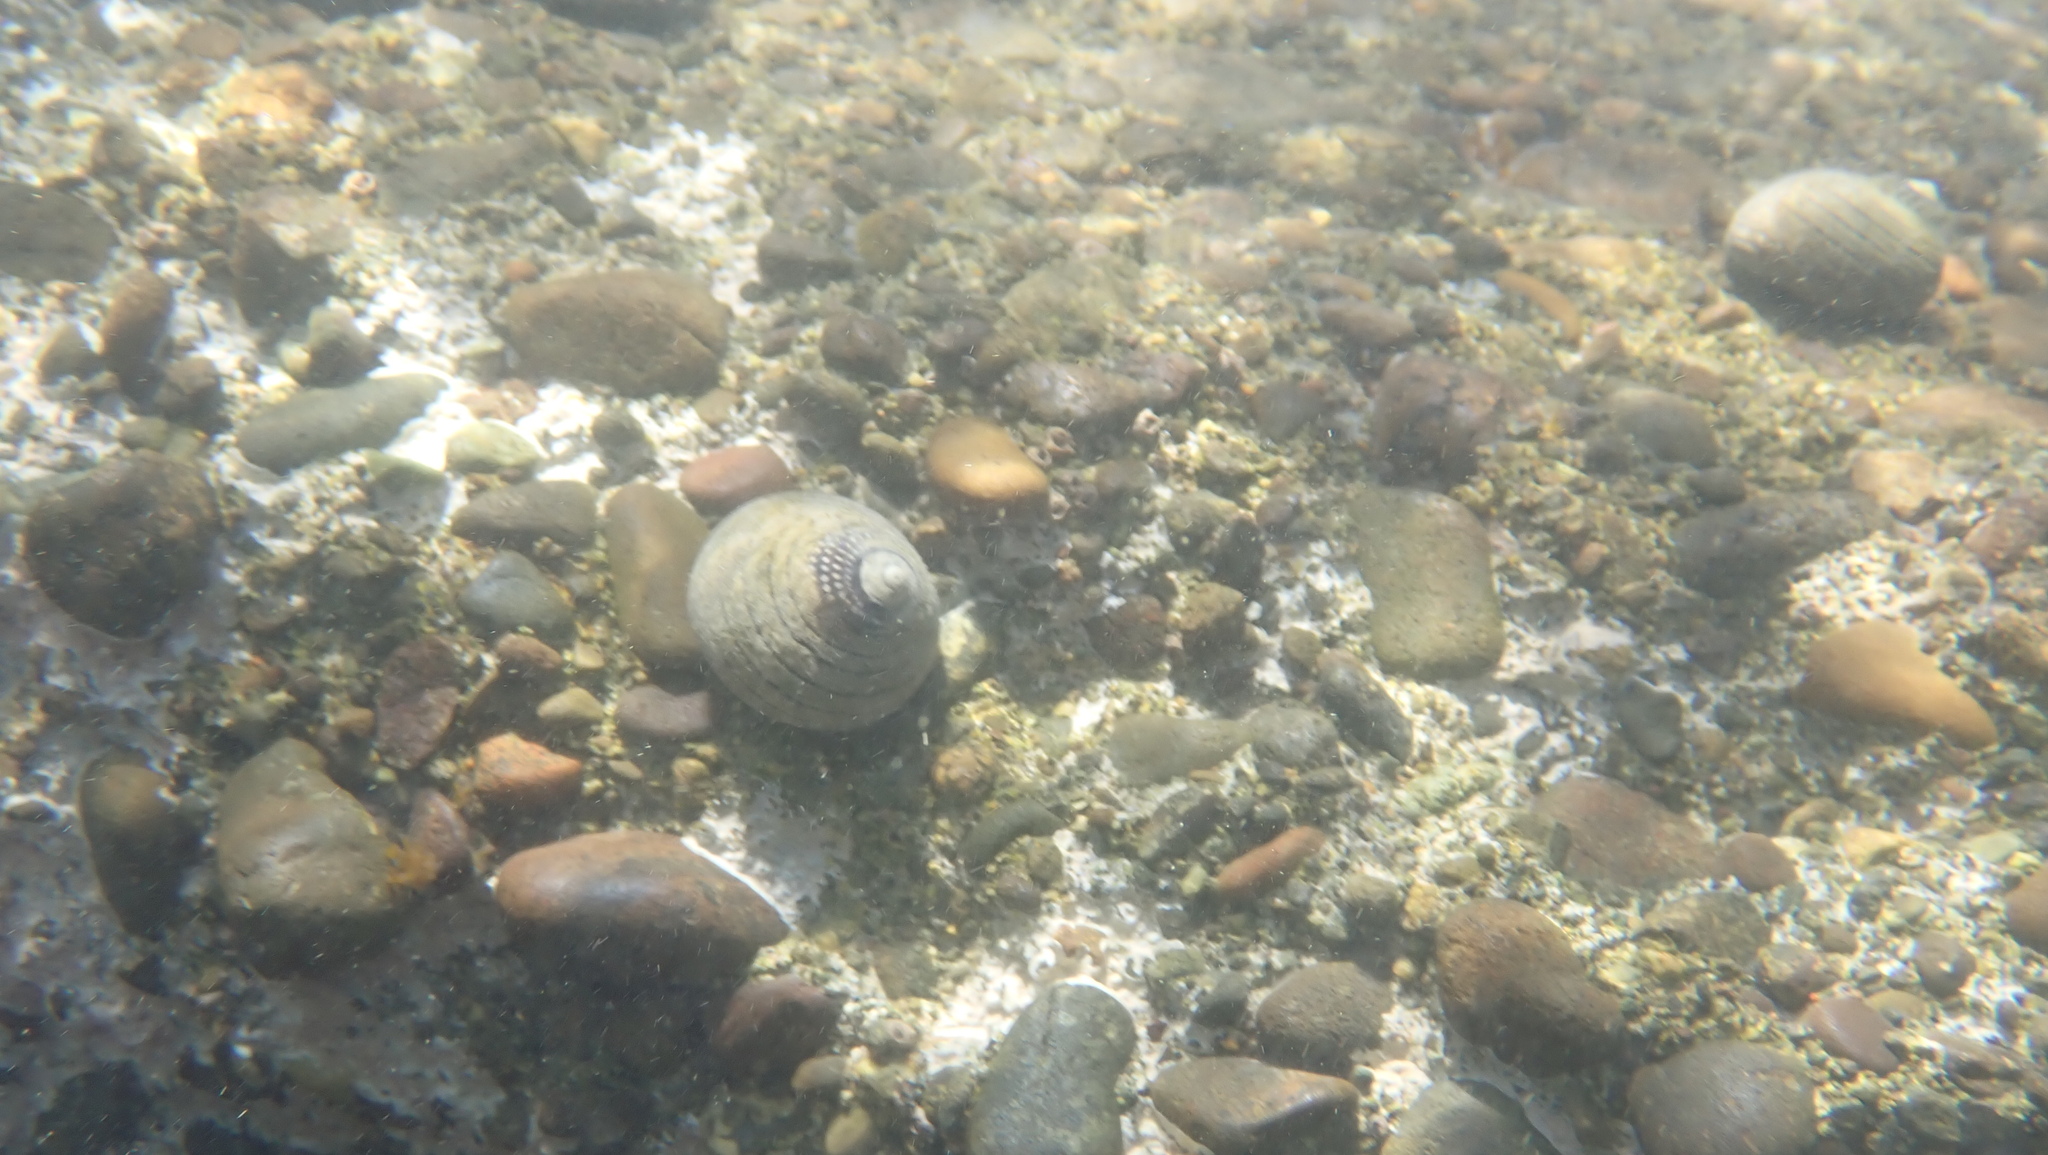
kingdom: Animalia
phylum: Mollusca
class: Gastropoda
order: Trochida
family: Trochidae
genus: Diloma
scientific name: Diloma aethiops
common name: Scorched monodont
